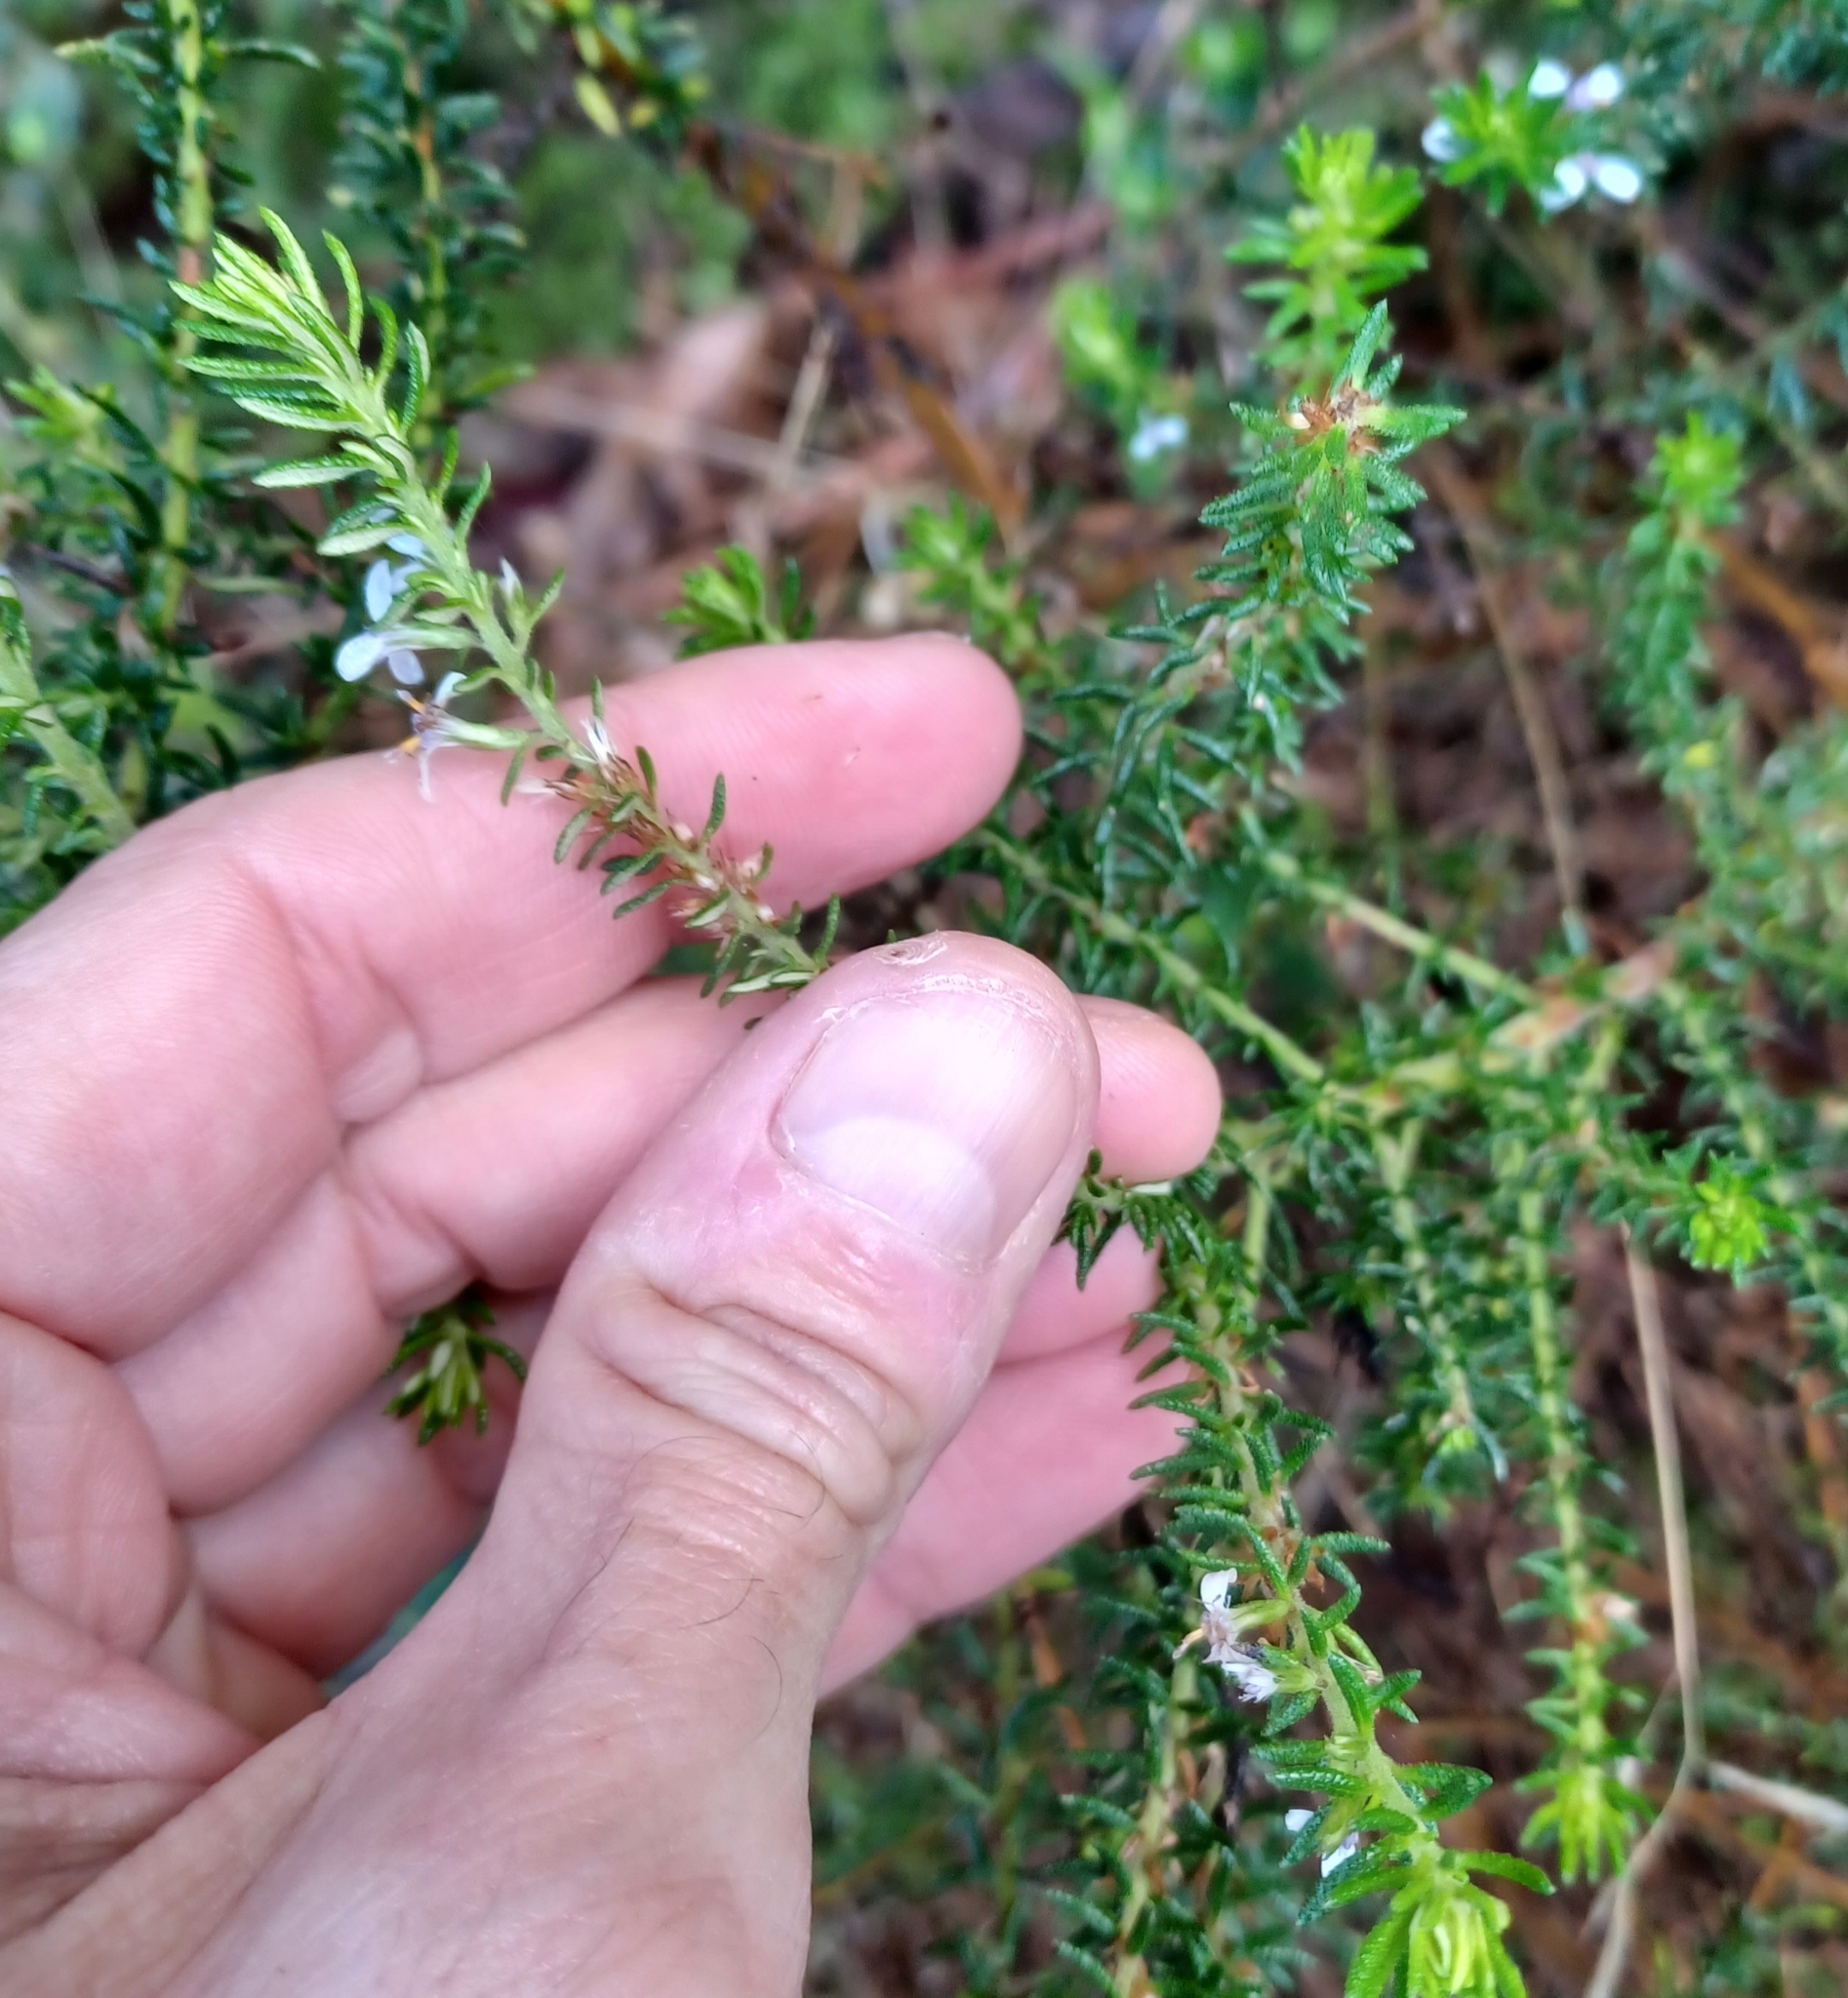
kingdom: Plantae
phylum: Tracheophyta
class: Magnoliopsida
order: Asterales
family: Asteraceae
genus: Olearia
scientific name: Olearia ramulosa
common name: Twiggy daisybush
